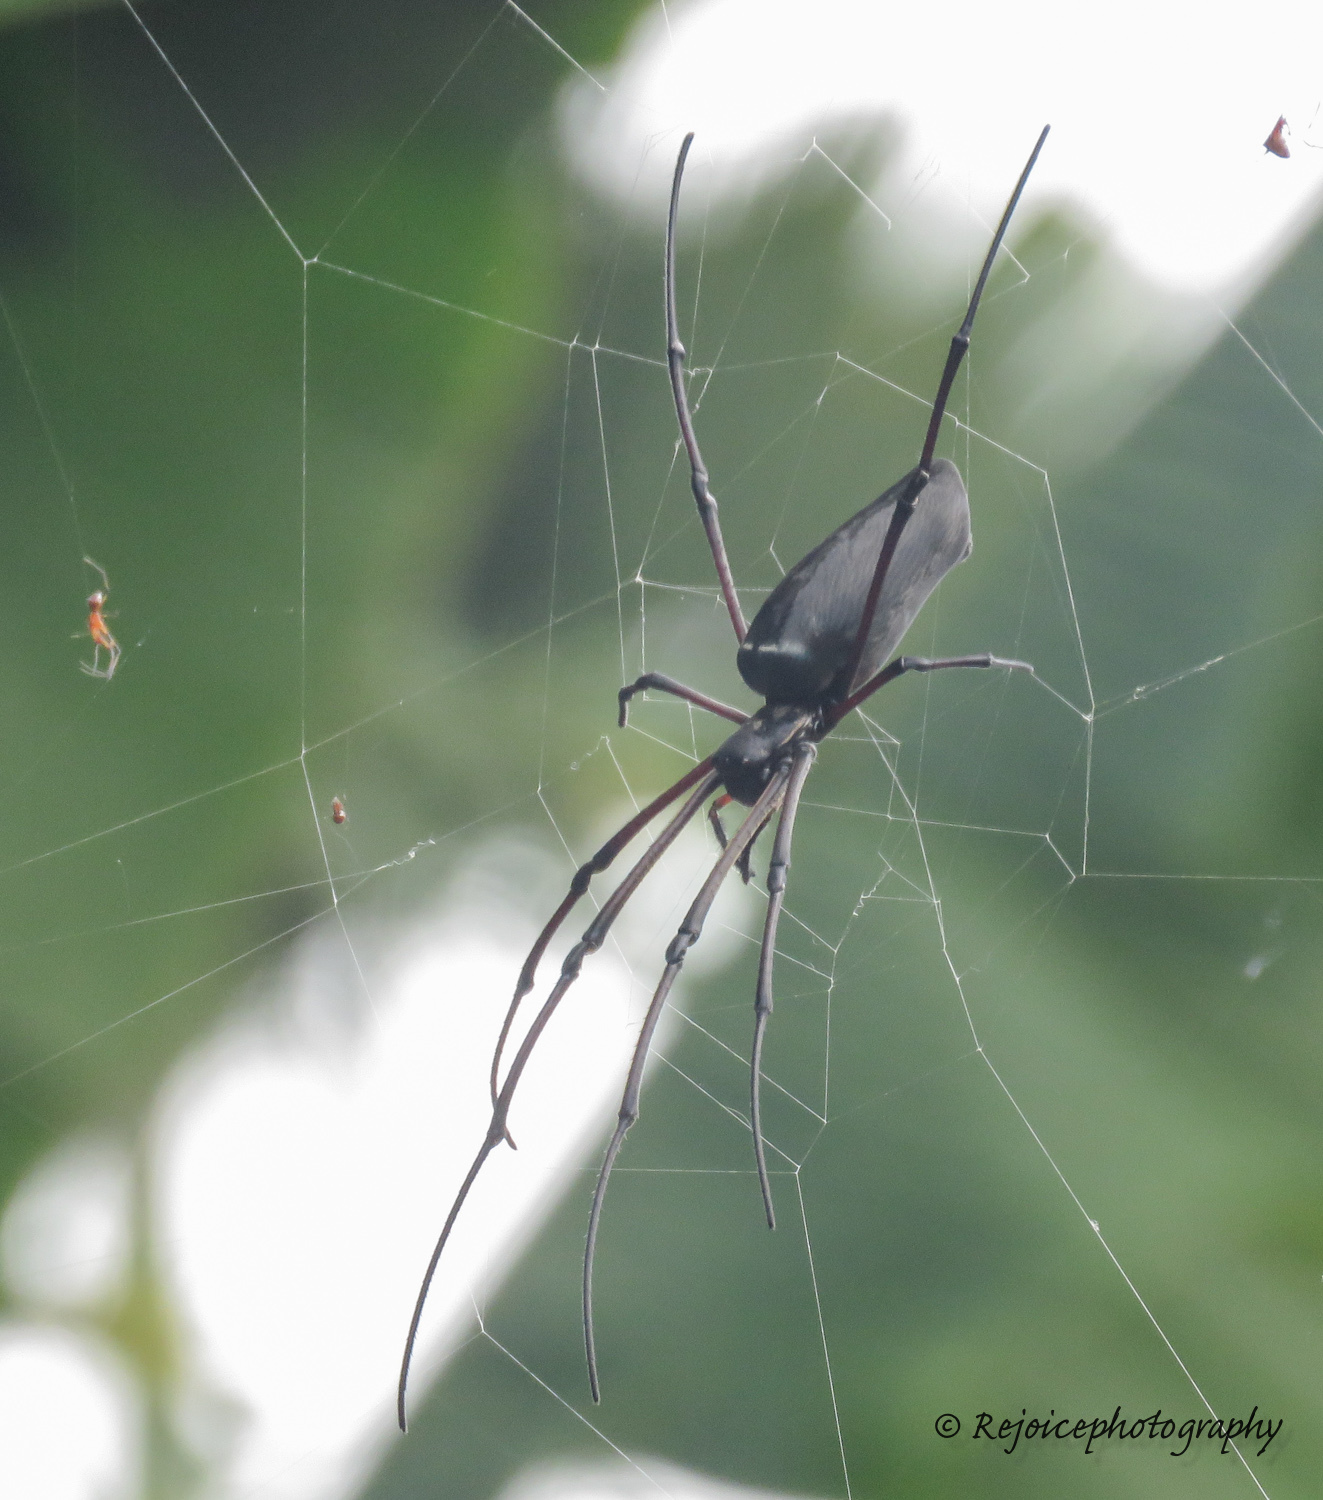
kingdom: Animalia
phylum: Arthropoda
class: Arachnida
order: Araneae
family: Araneidae
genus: Nephila
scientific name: Nephila kuhli
